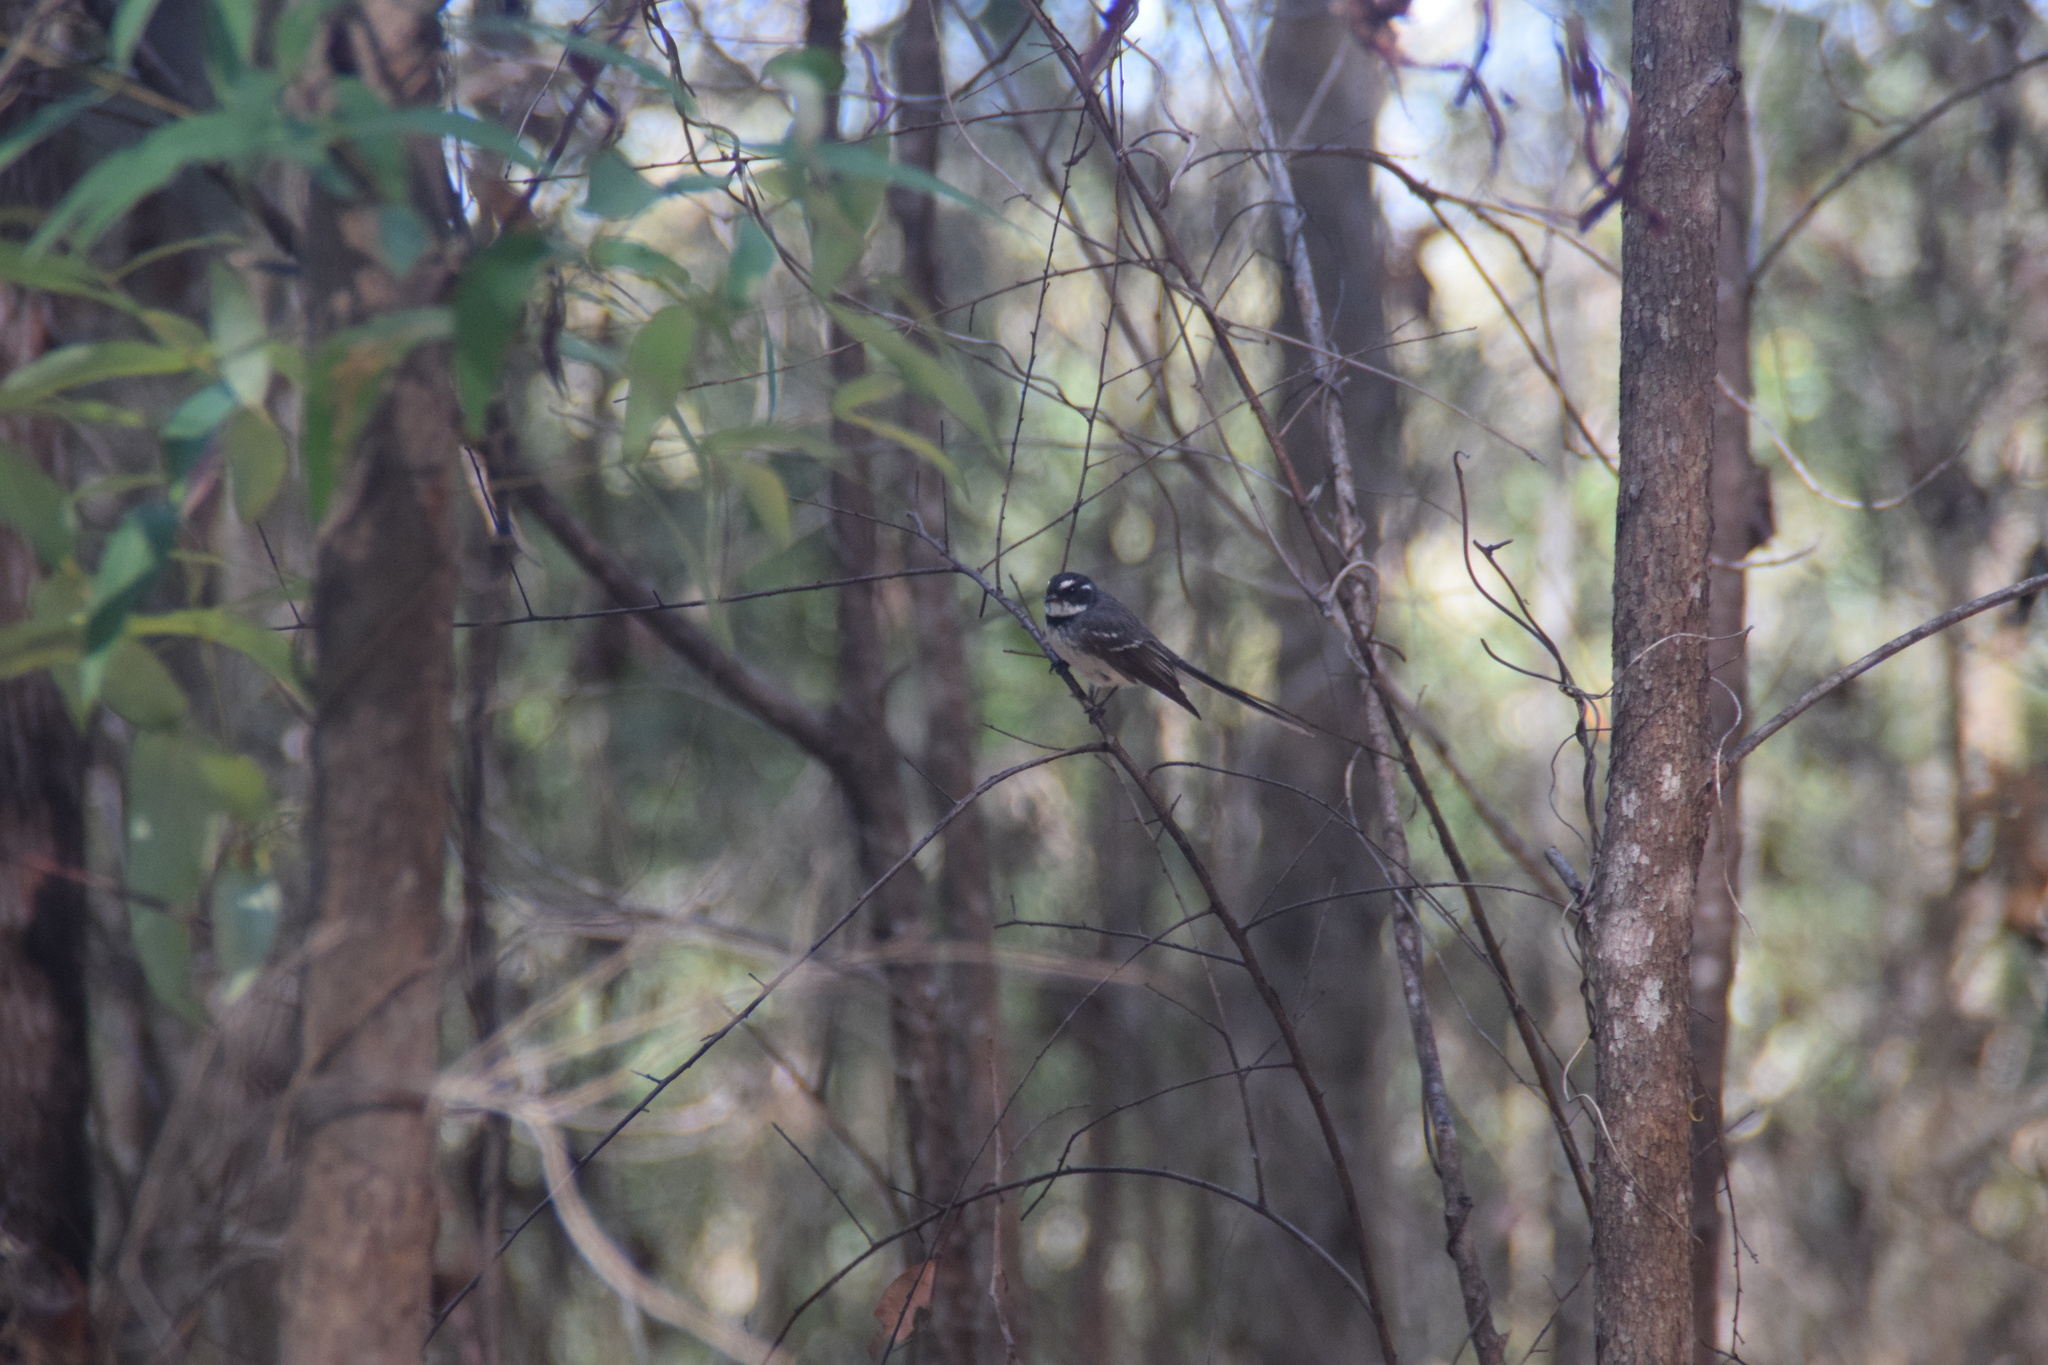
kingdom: Animalia
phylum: Chordata
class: Aves
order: Passeriformes
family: Rhipiduridae
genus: Rhipidura
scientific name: Rhipidura albiscapa
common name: Grey fantail
